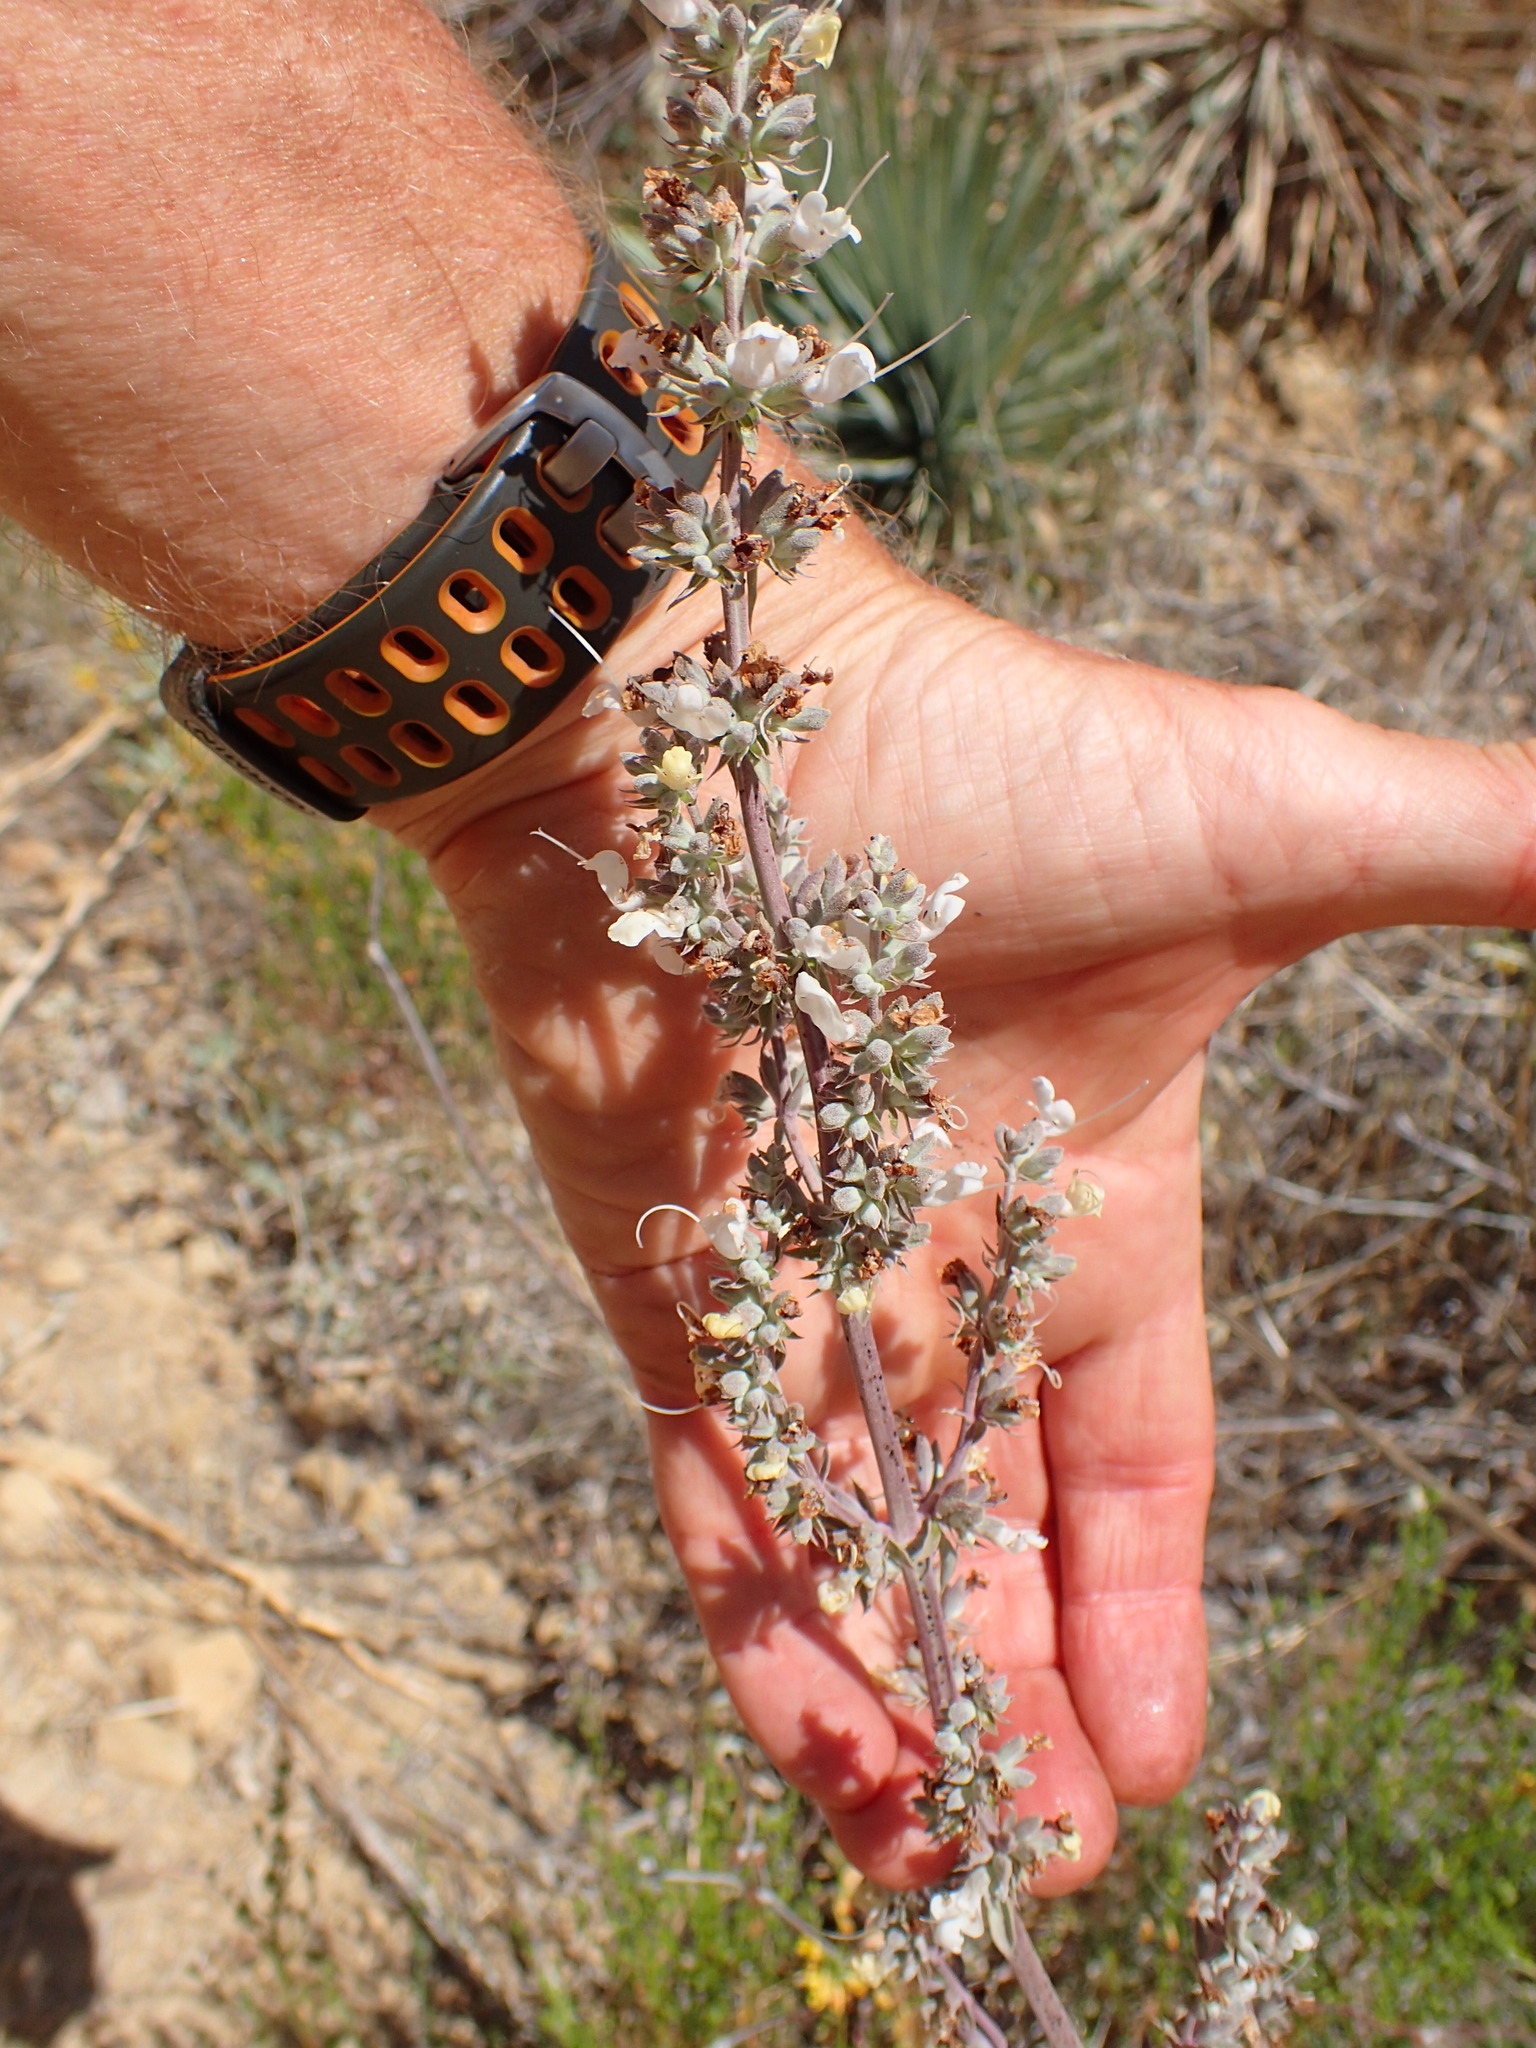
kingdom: Plantae
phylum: Tracheophyta
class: Magnoliopsida
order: Lamiales
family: Lamiaceae
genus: Salvia
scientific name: Salvia apiana
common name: White sage
